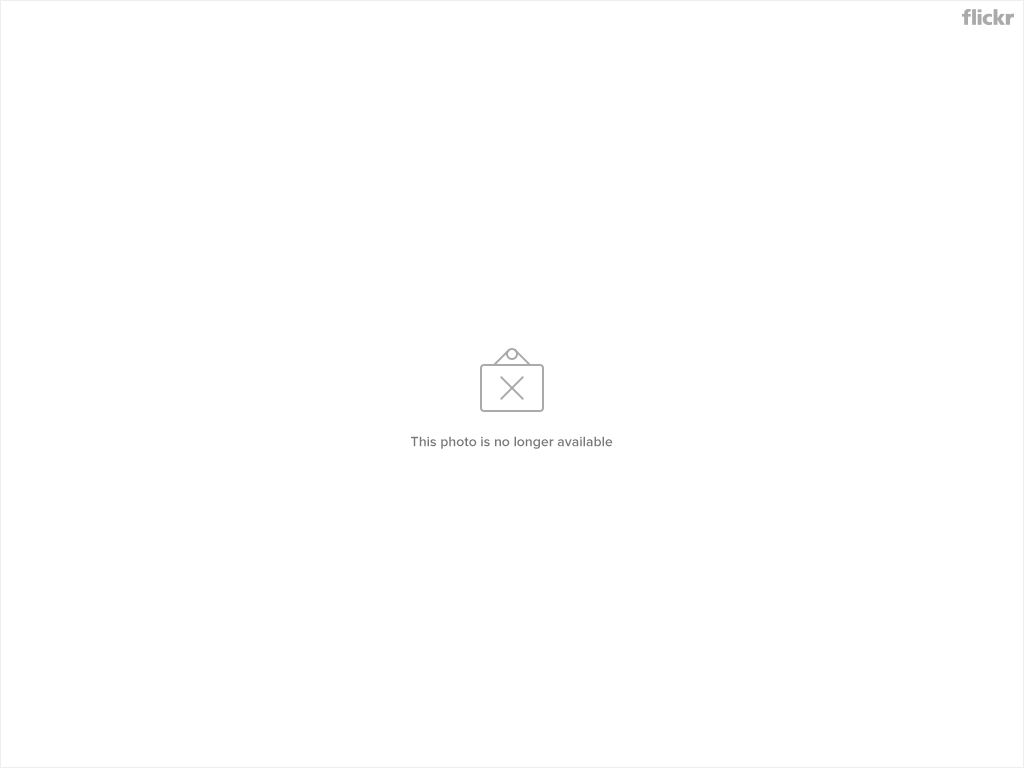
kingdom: Animalia
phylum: Chordata
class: Aves
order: Passeriformes
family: Passerellidae
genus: Ammodramus
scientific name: Ammodramus savannarum
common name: Grasshopper sparrow
